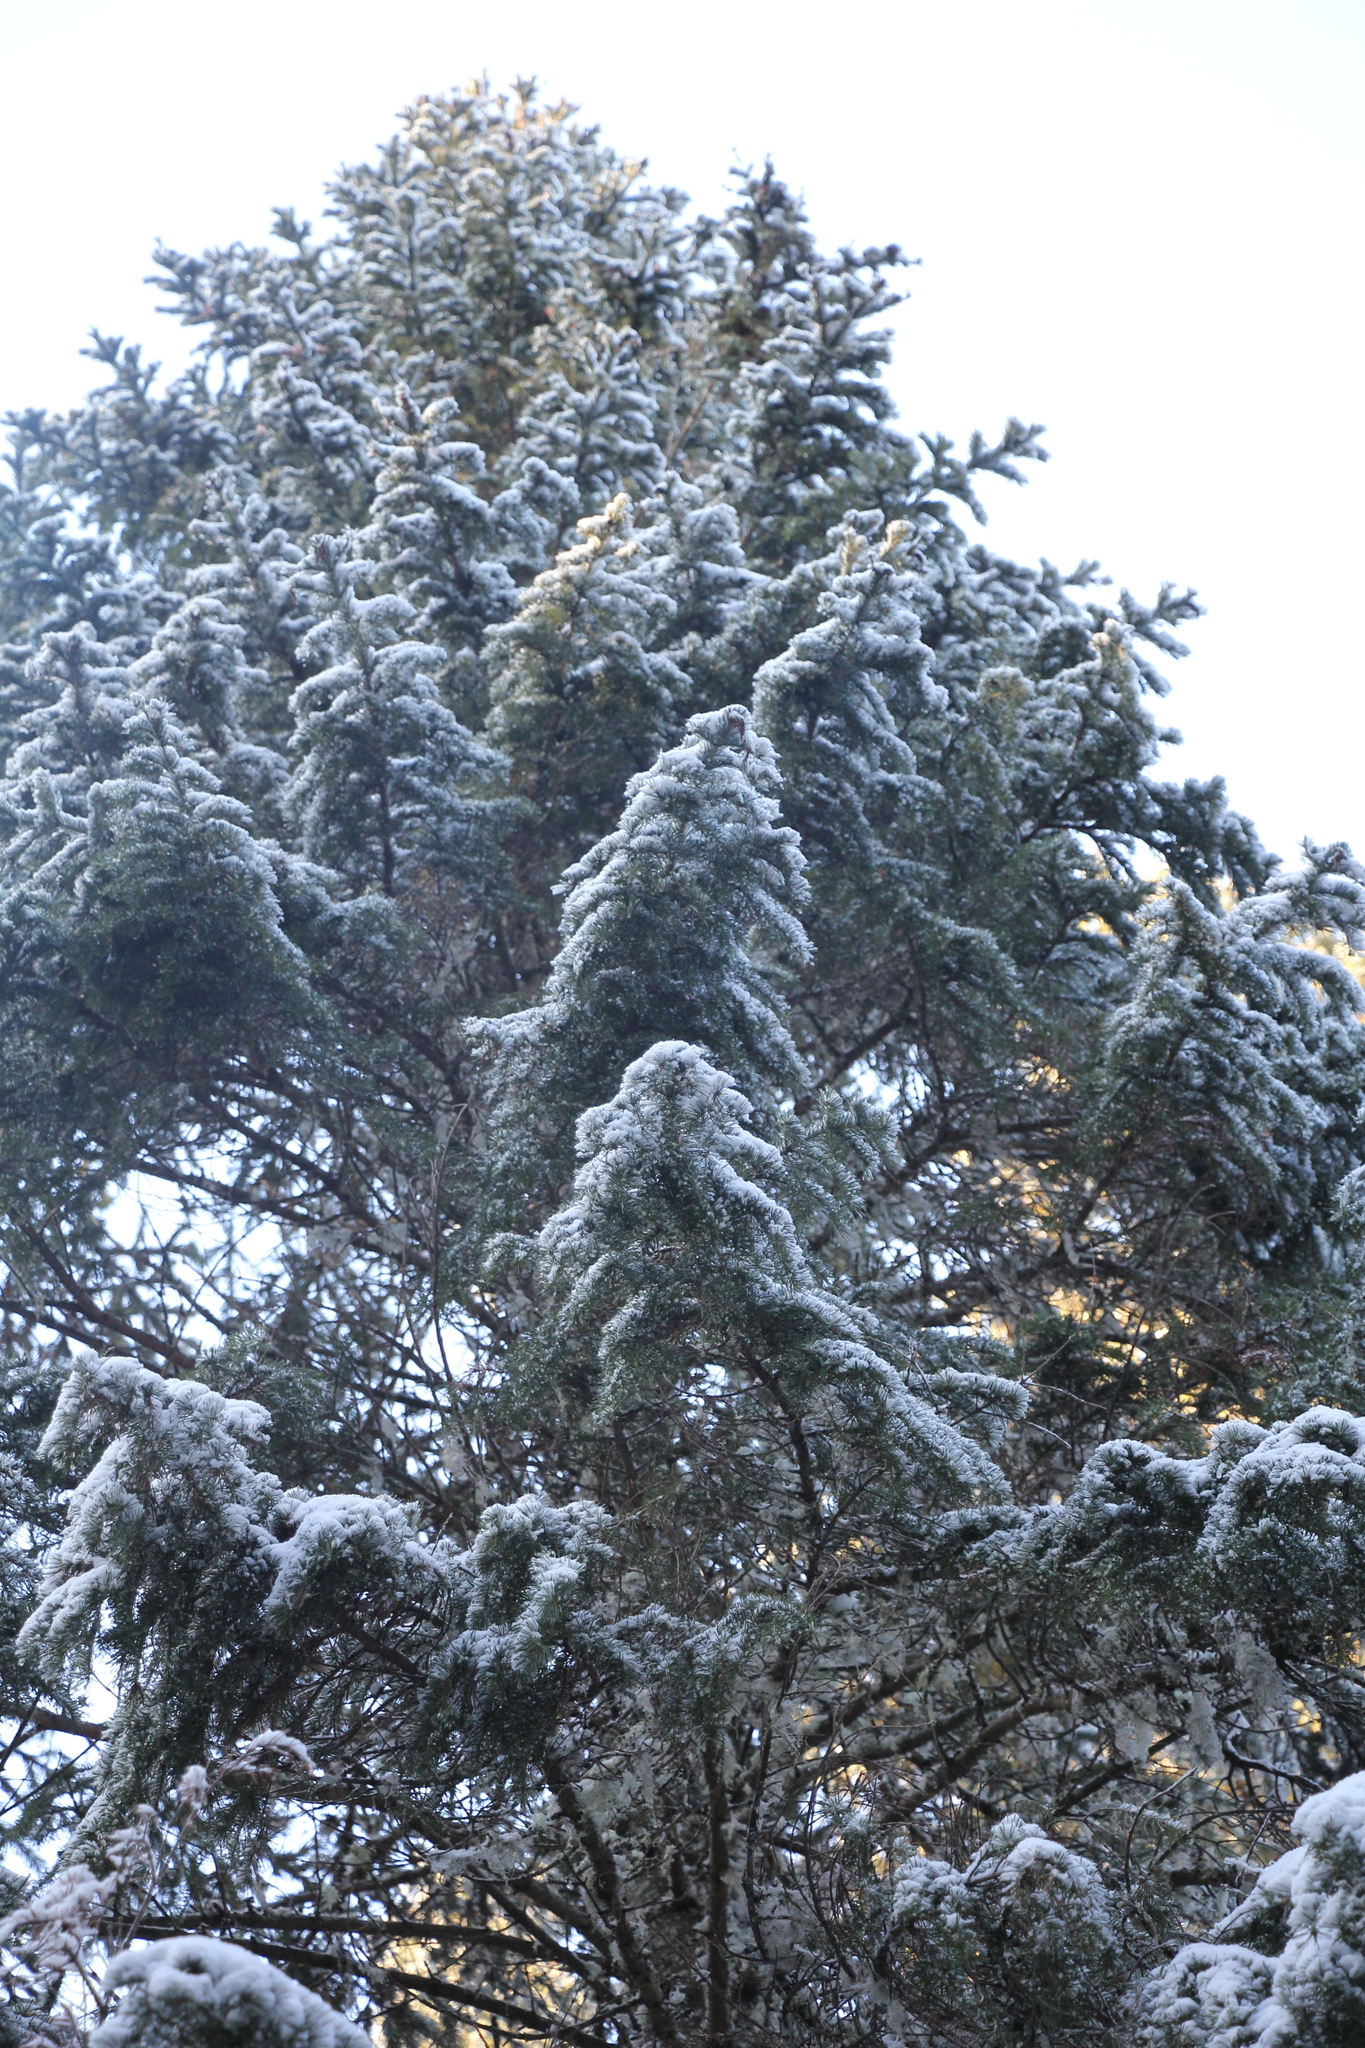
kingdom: Plantae
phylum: Tracheophyta
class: Pinopsida
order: Pinales
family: Pinaceae
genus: Abies
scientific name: Abies sibirica
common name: Siberian fir
